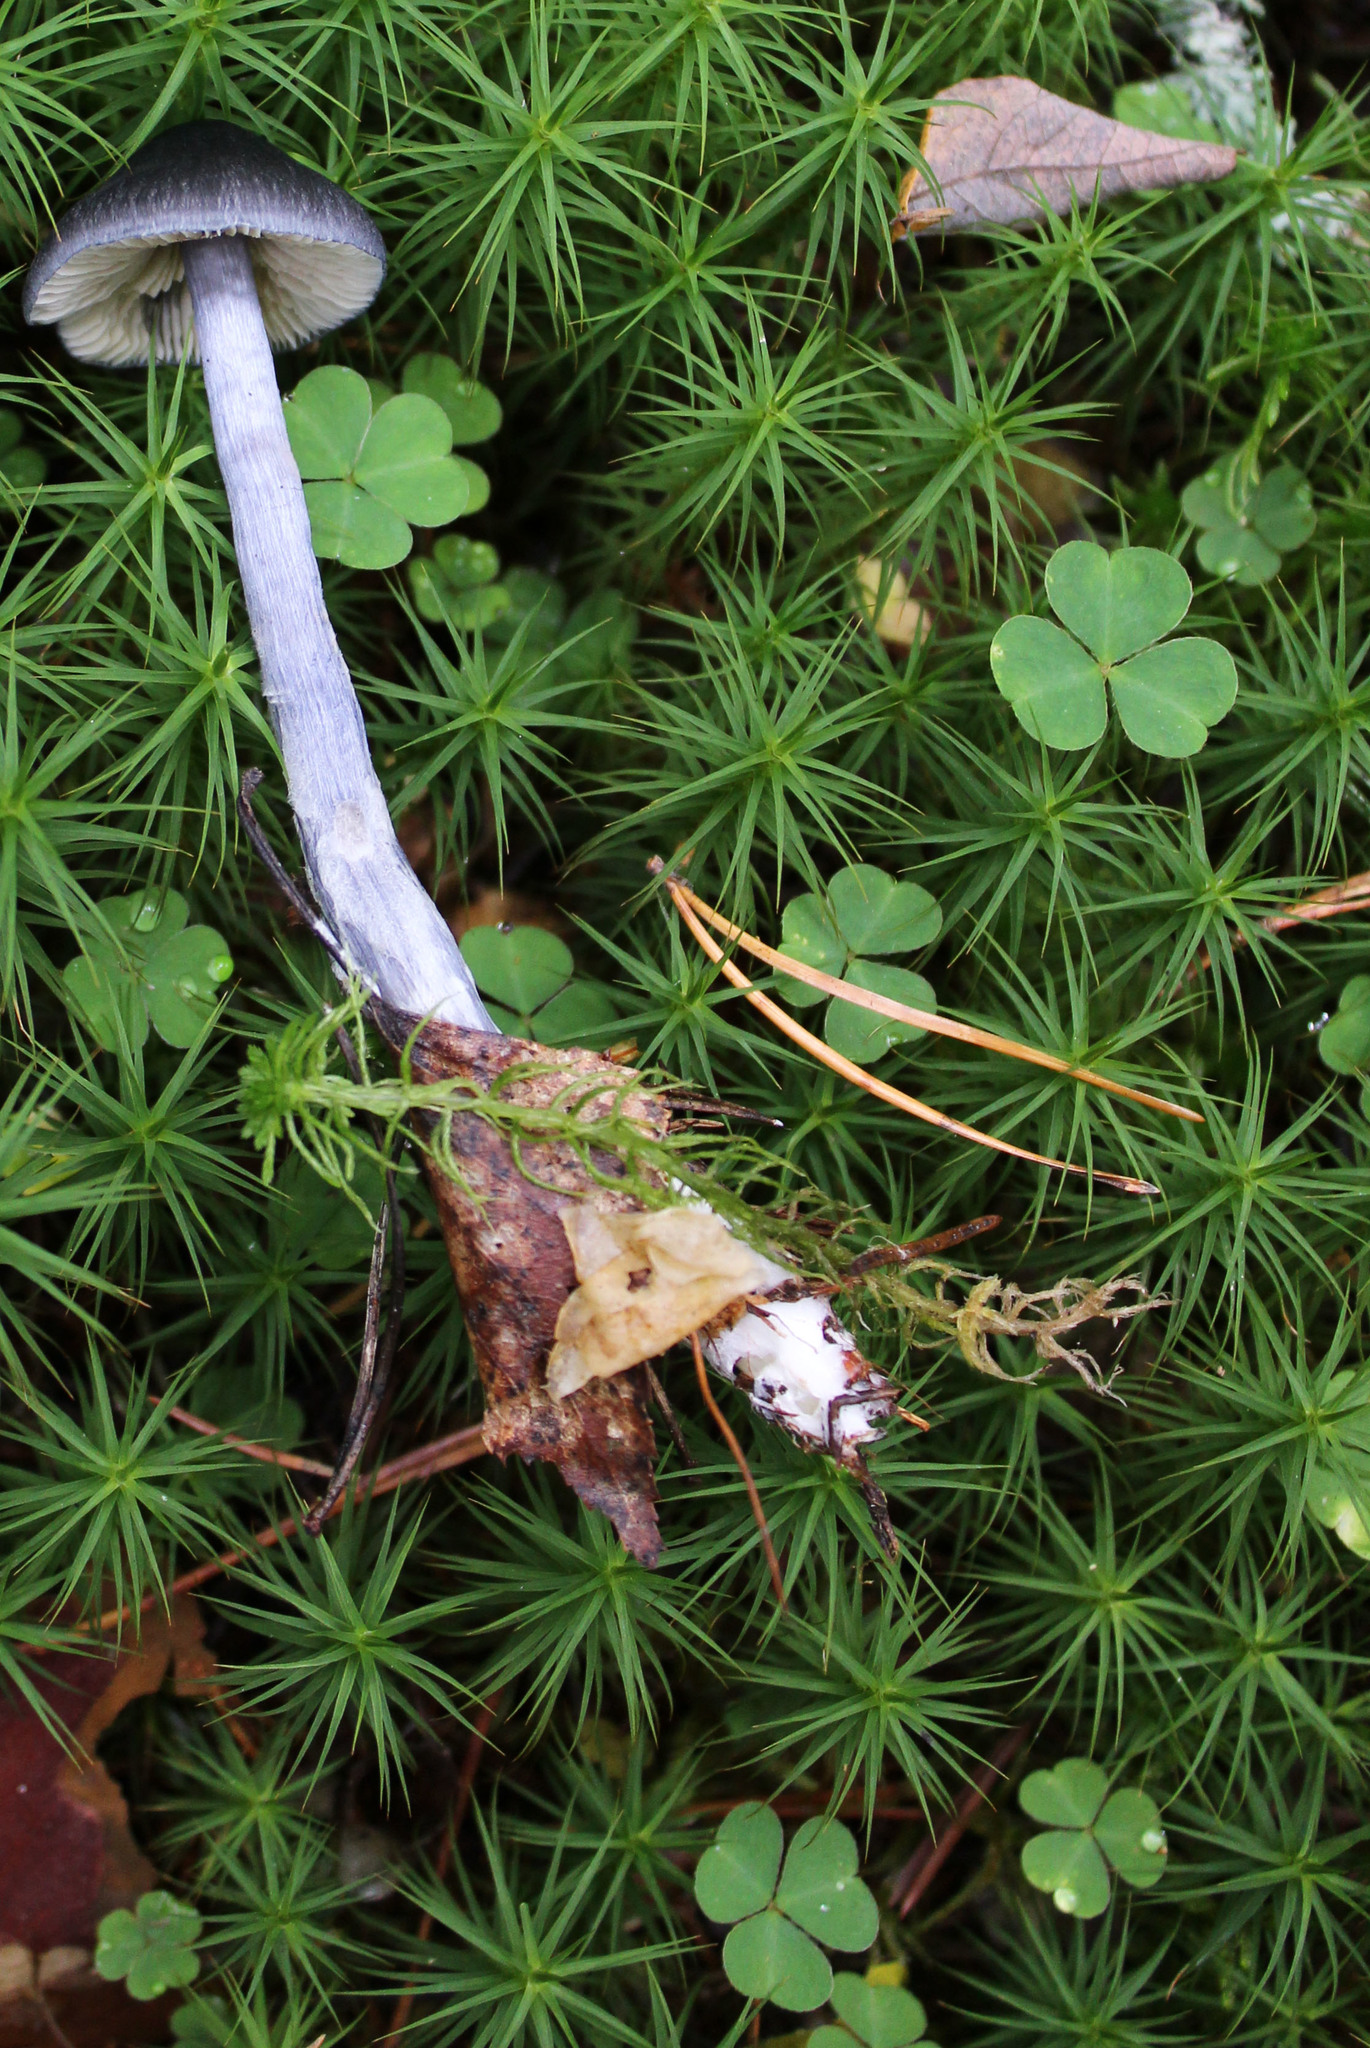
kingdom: Plantae
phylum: Tracheophyta
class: Magnoliopsida
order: Oxalidales
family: Oxalidaceae
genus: Oxalis
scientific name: Oxalis acetosella
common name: Wood-sorrel
